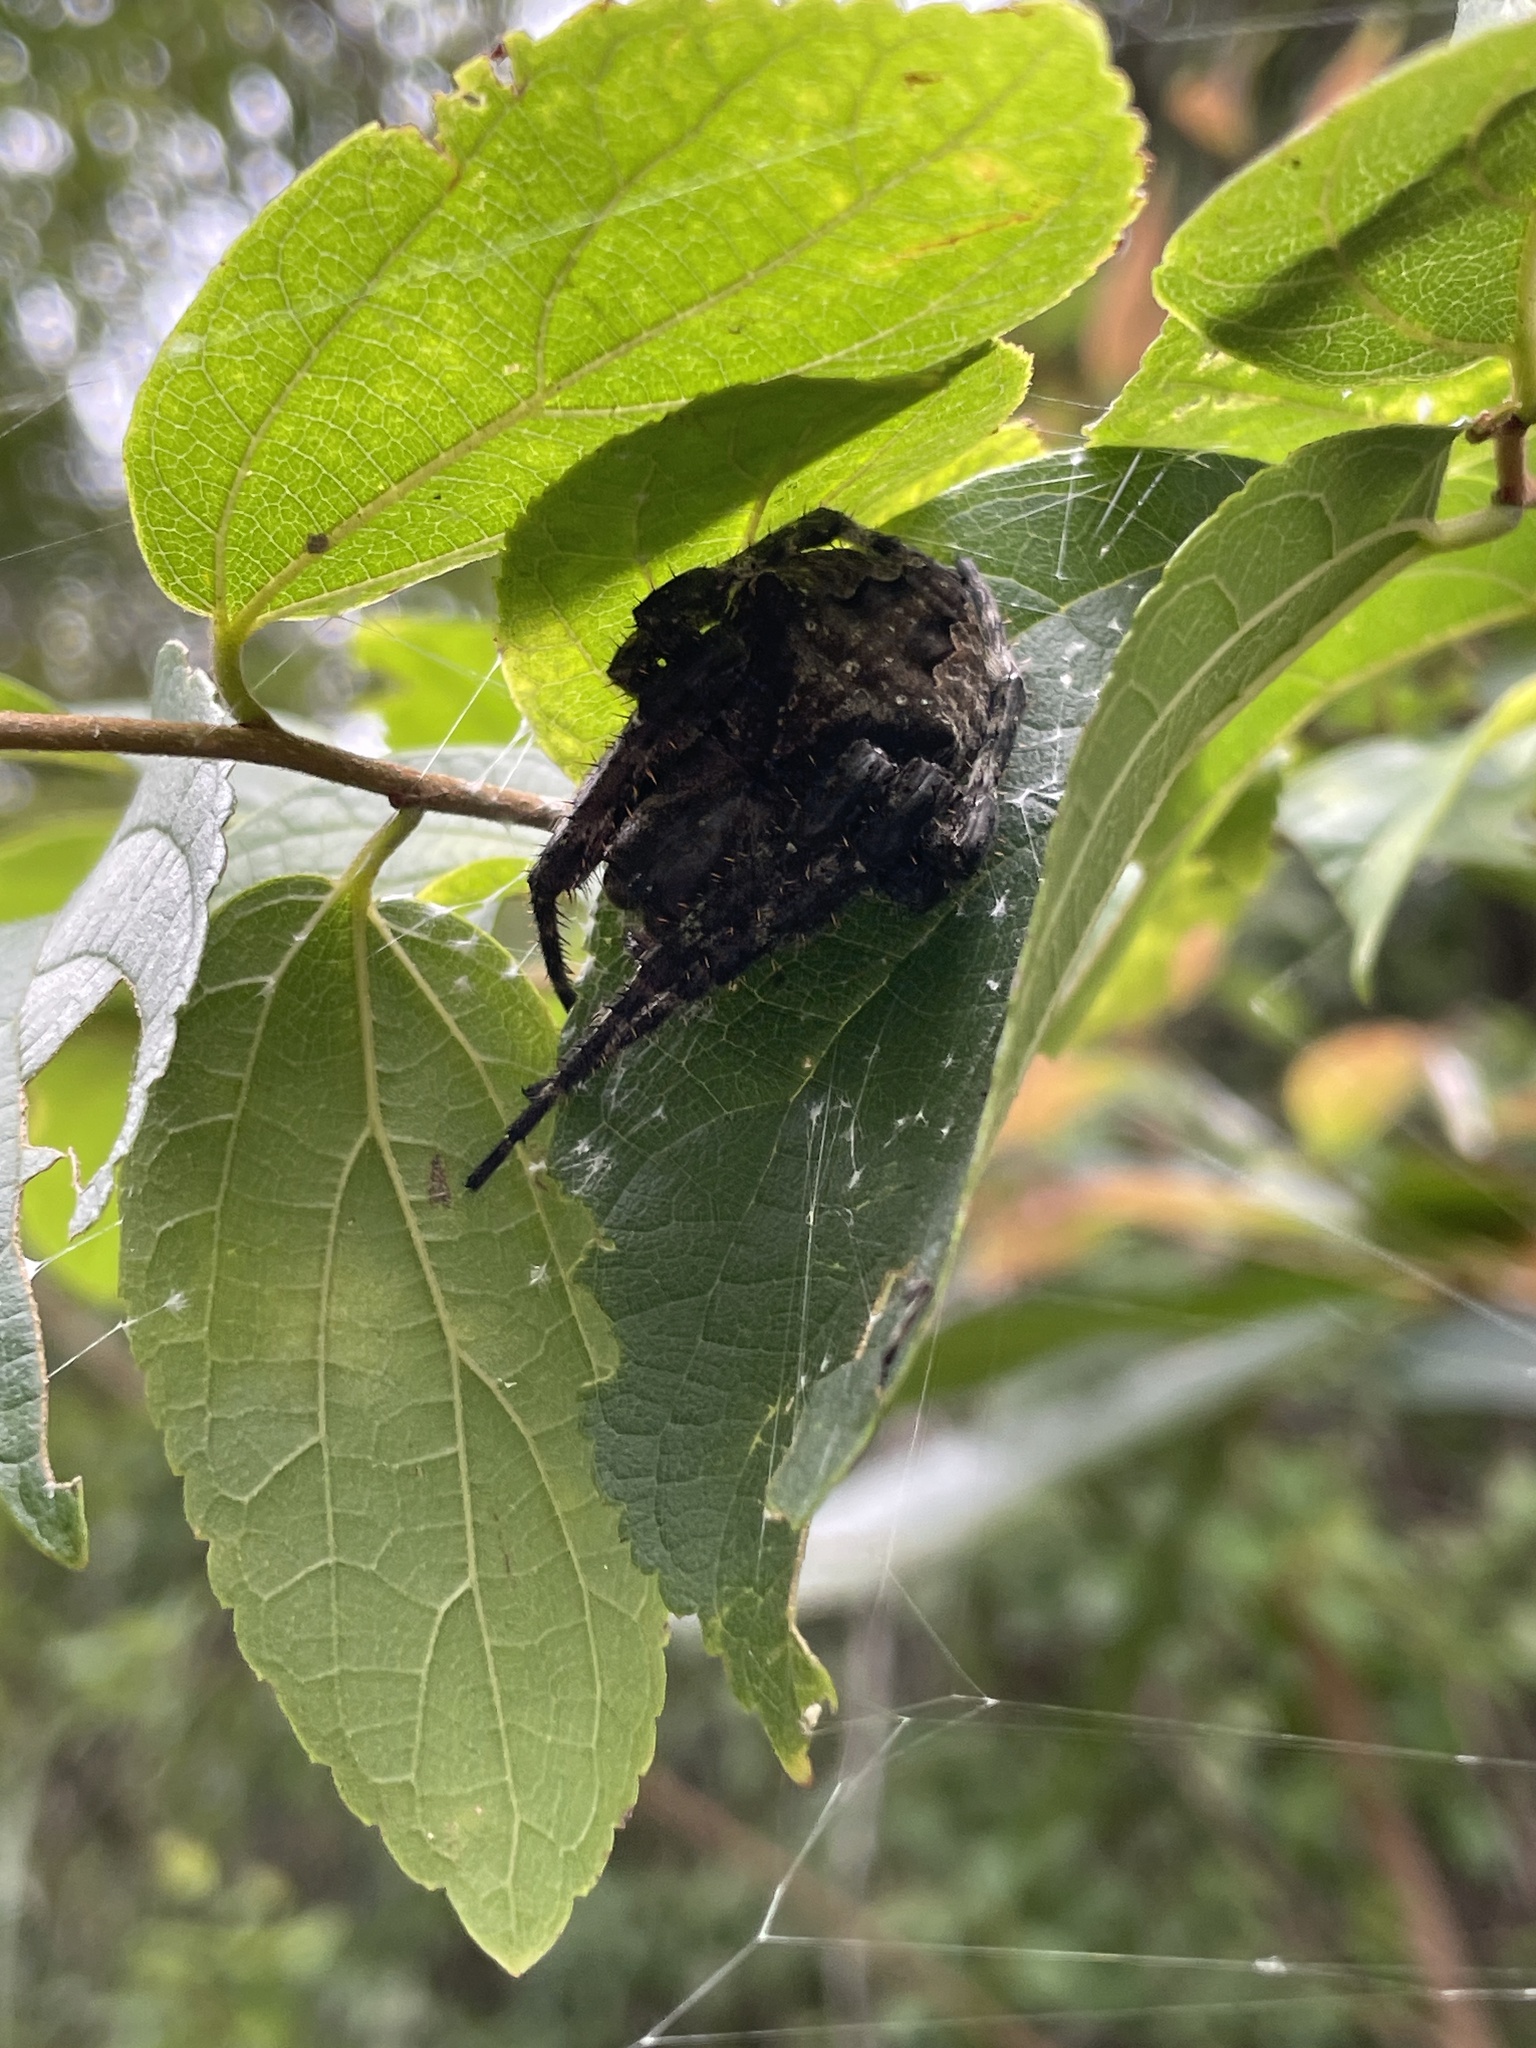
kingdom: Animalia
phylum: Arthropoda
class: Arachnida
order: Araneae
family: Araneidae
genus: Araneus
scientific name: Araneus ventricosus
